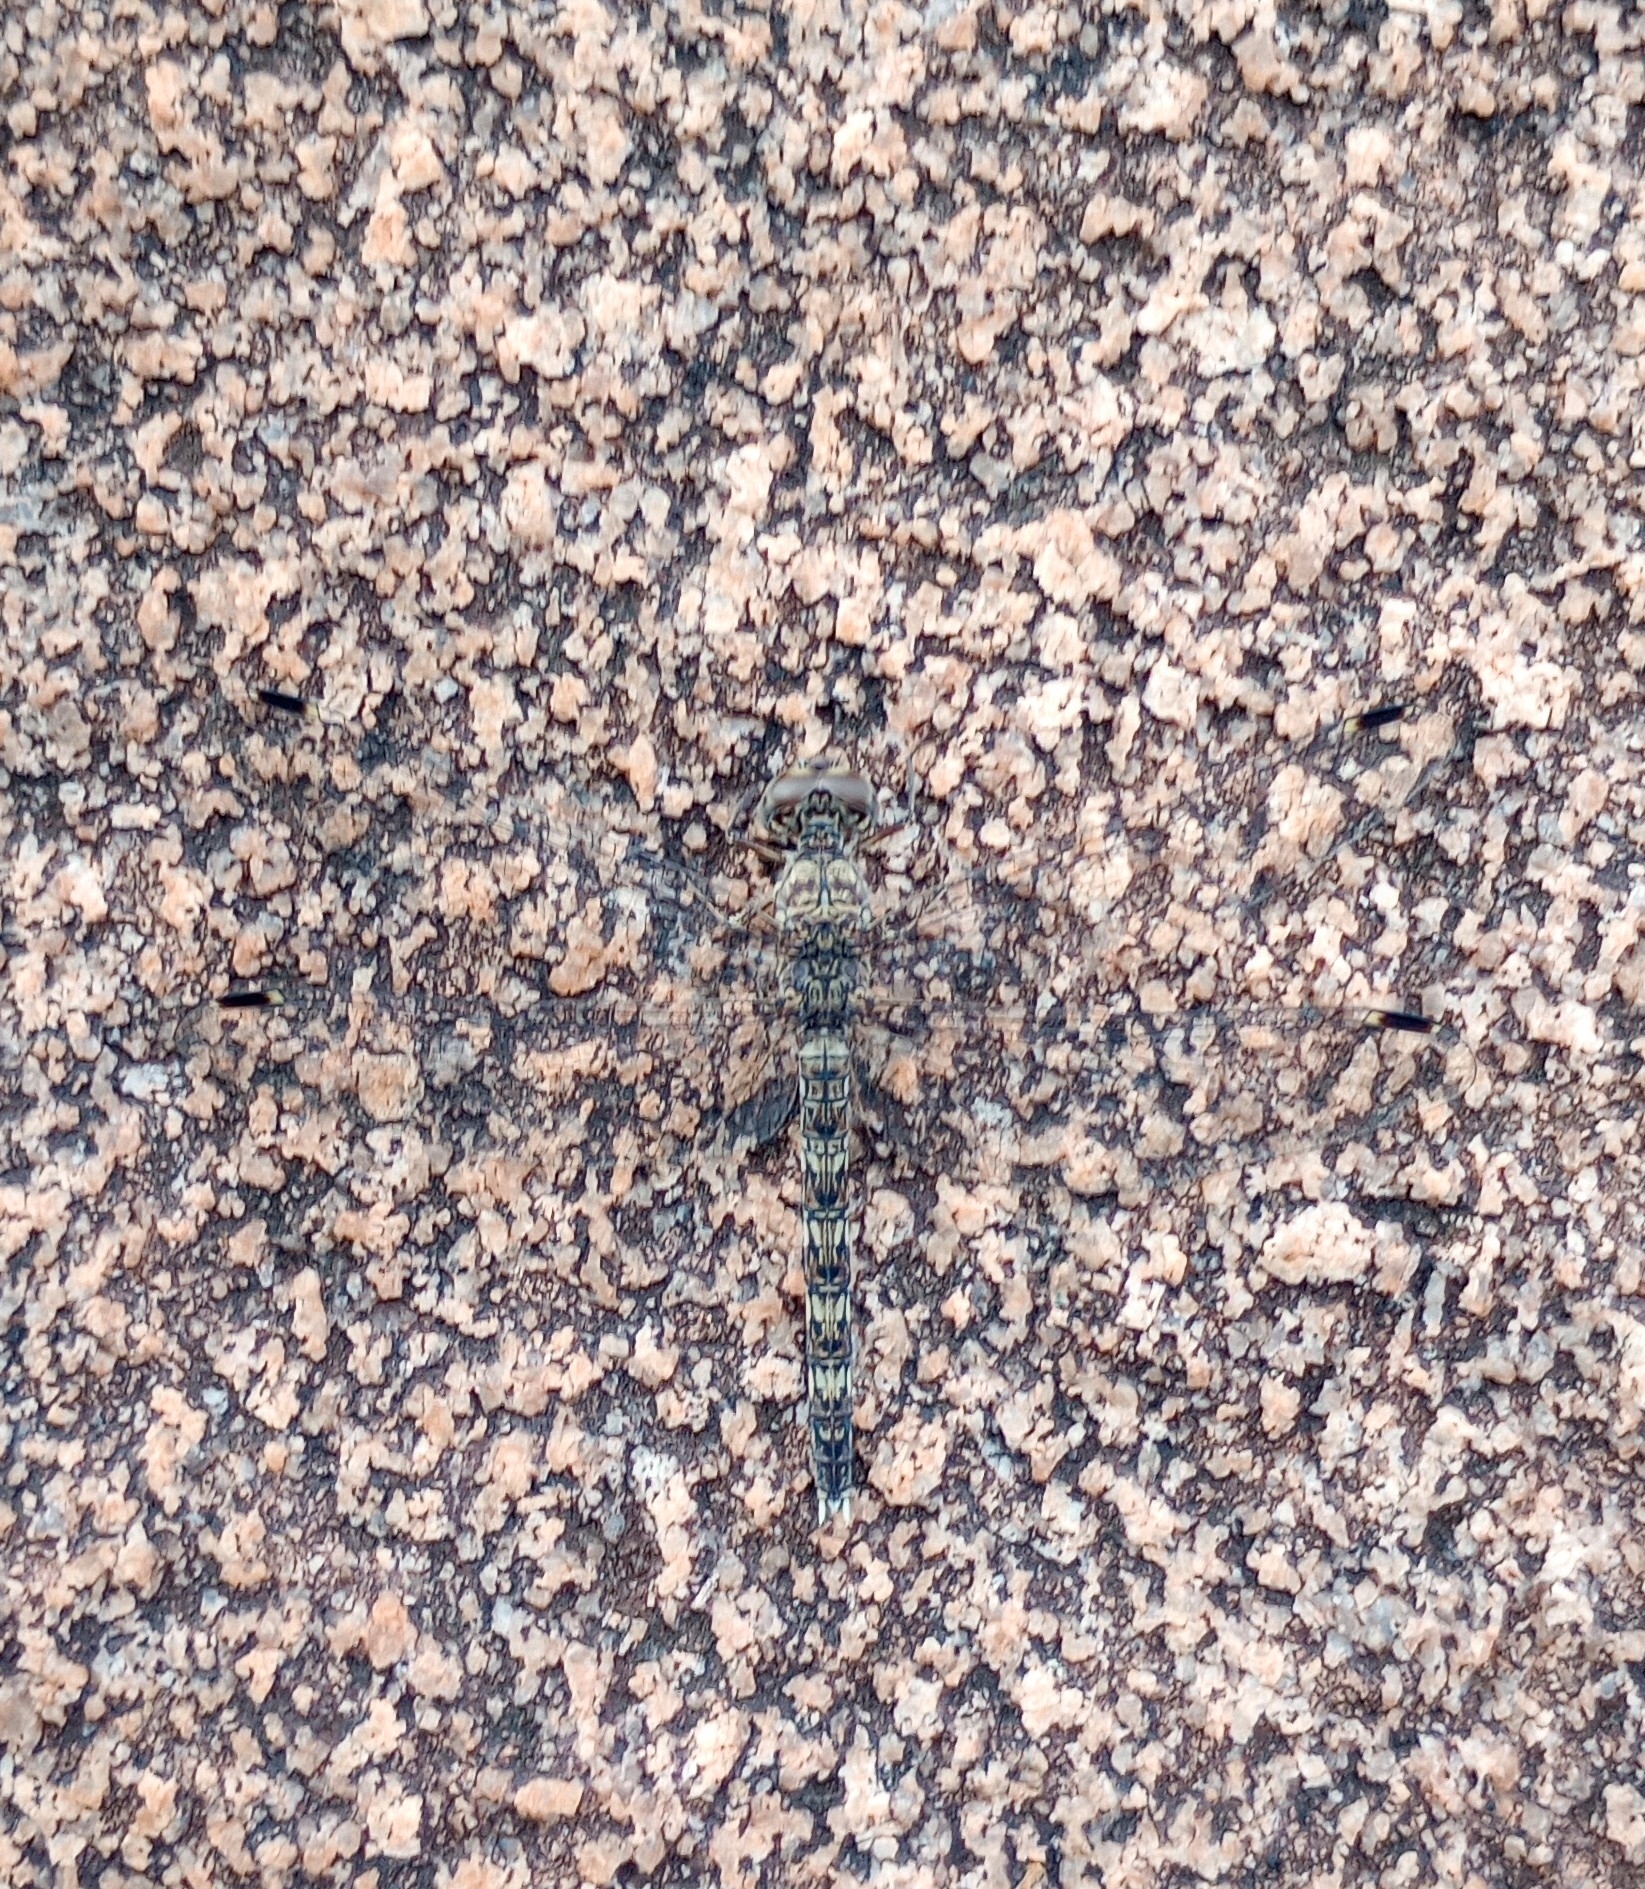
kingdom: Animalia
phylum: Arthropoda
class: Insecta
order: Odonata
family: Libellulidae
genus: Bradinopyga
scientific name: Bradinopyga geminata
